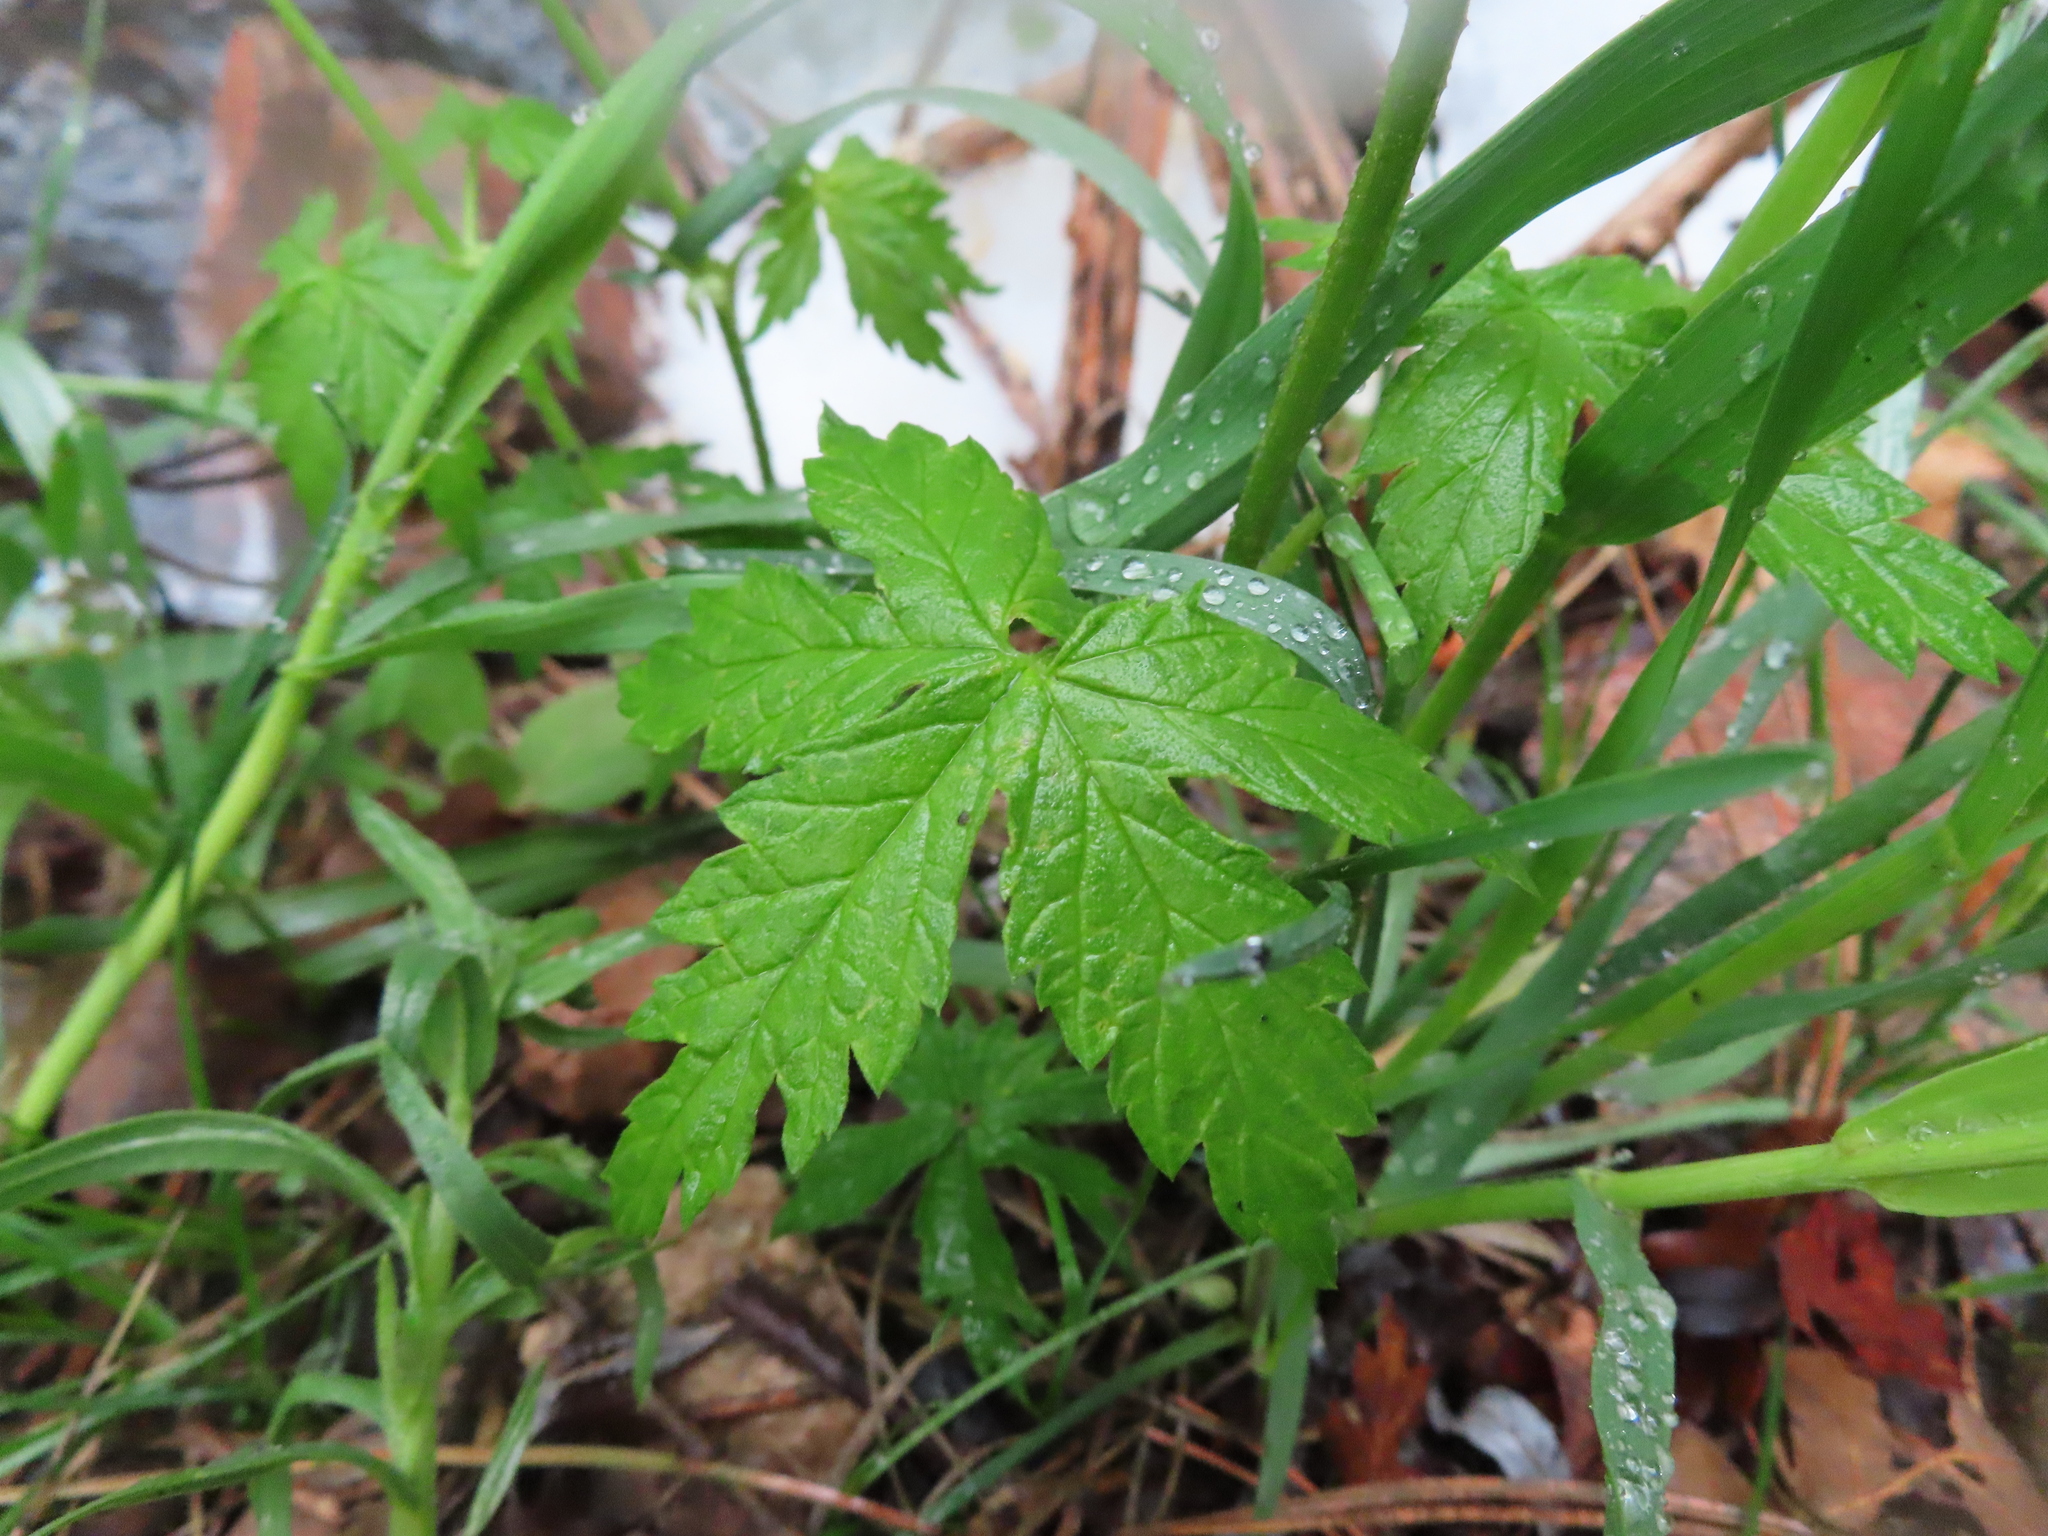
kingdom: Plantae
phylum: Tracheophyta
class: Magnoliopsida
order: Rosales
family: Cannabaceae
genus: Humulus
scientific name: Humulus lupulus
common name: Hop
